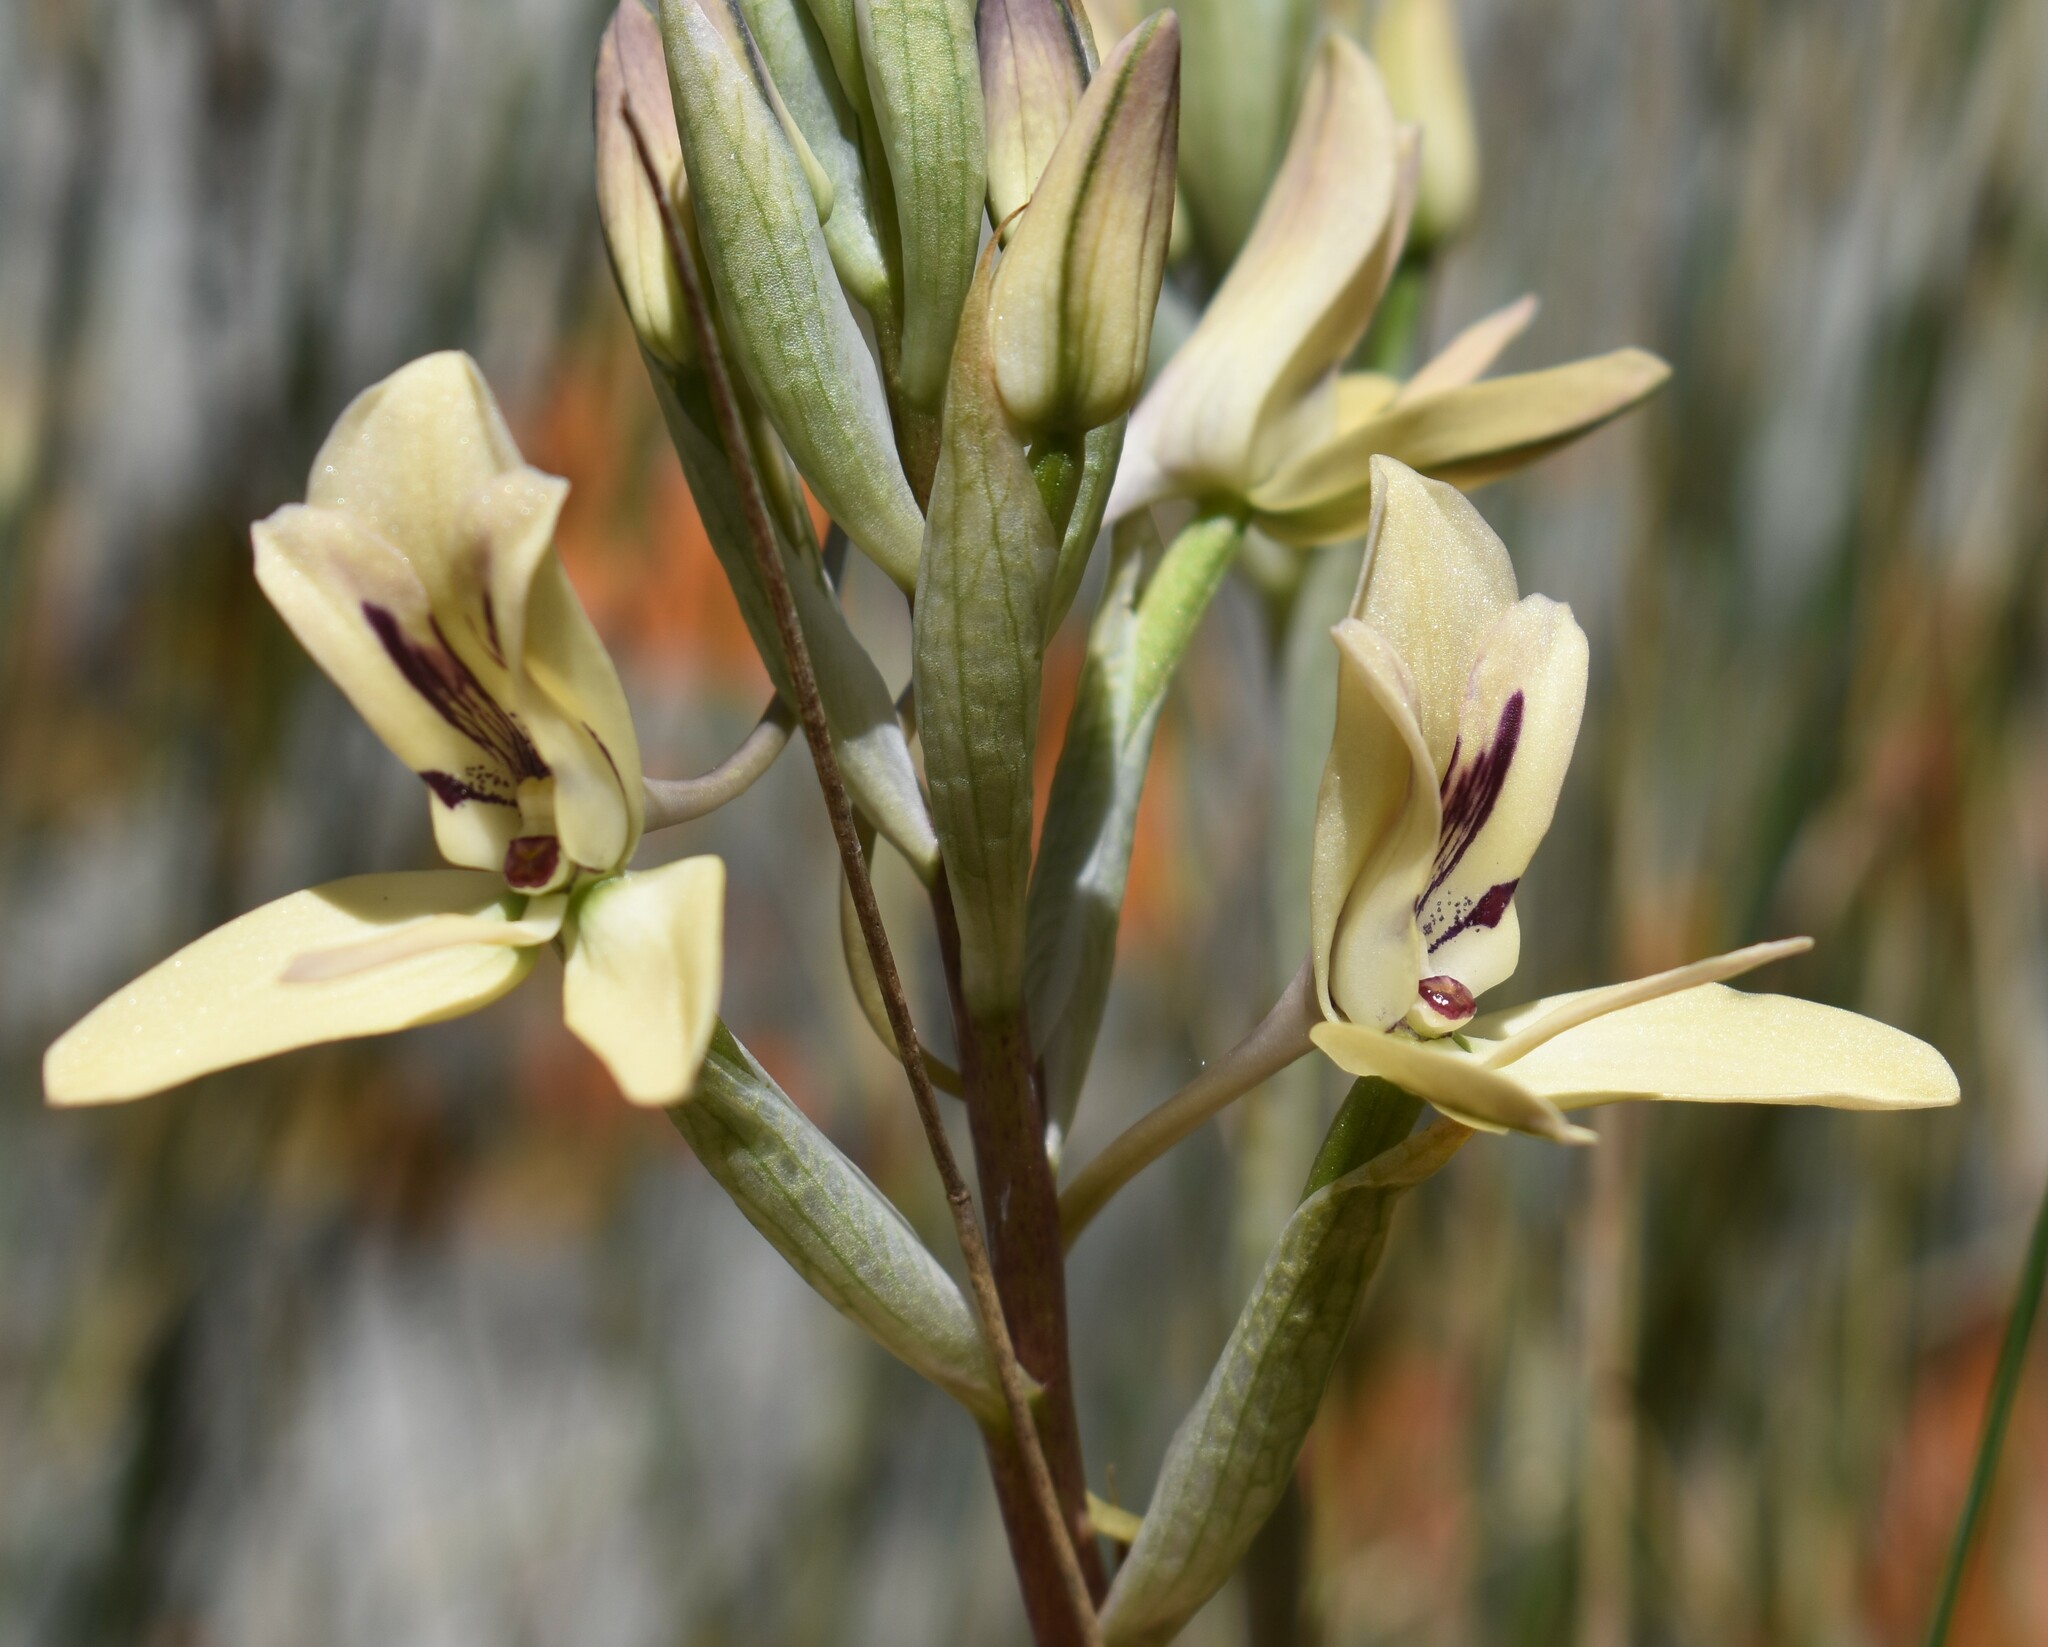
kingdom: Plantae
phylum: Tracheophyta
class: Liliopsida
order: Asparagales
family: Orchidaceae
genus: Disa
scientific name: Disa harveyana
